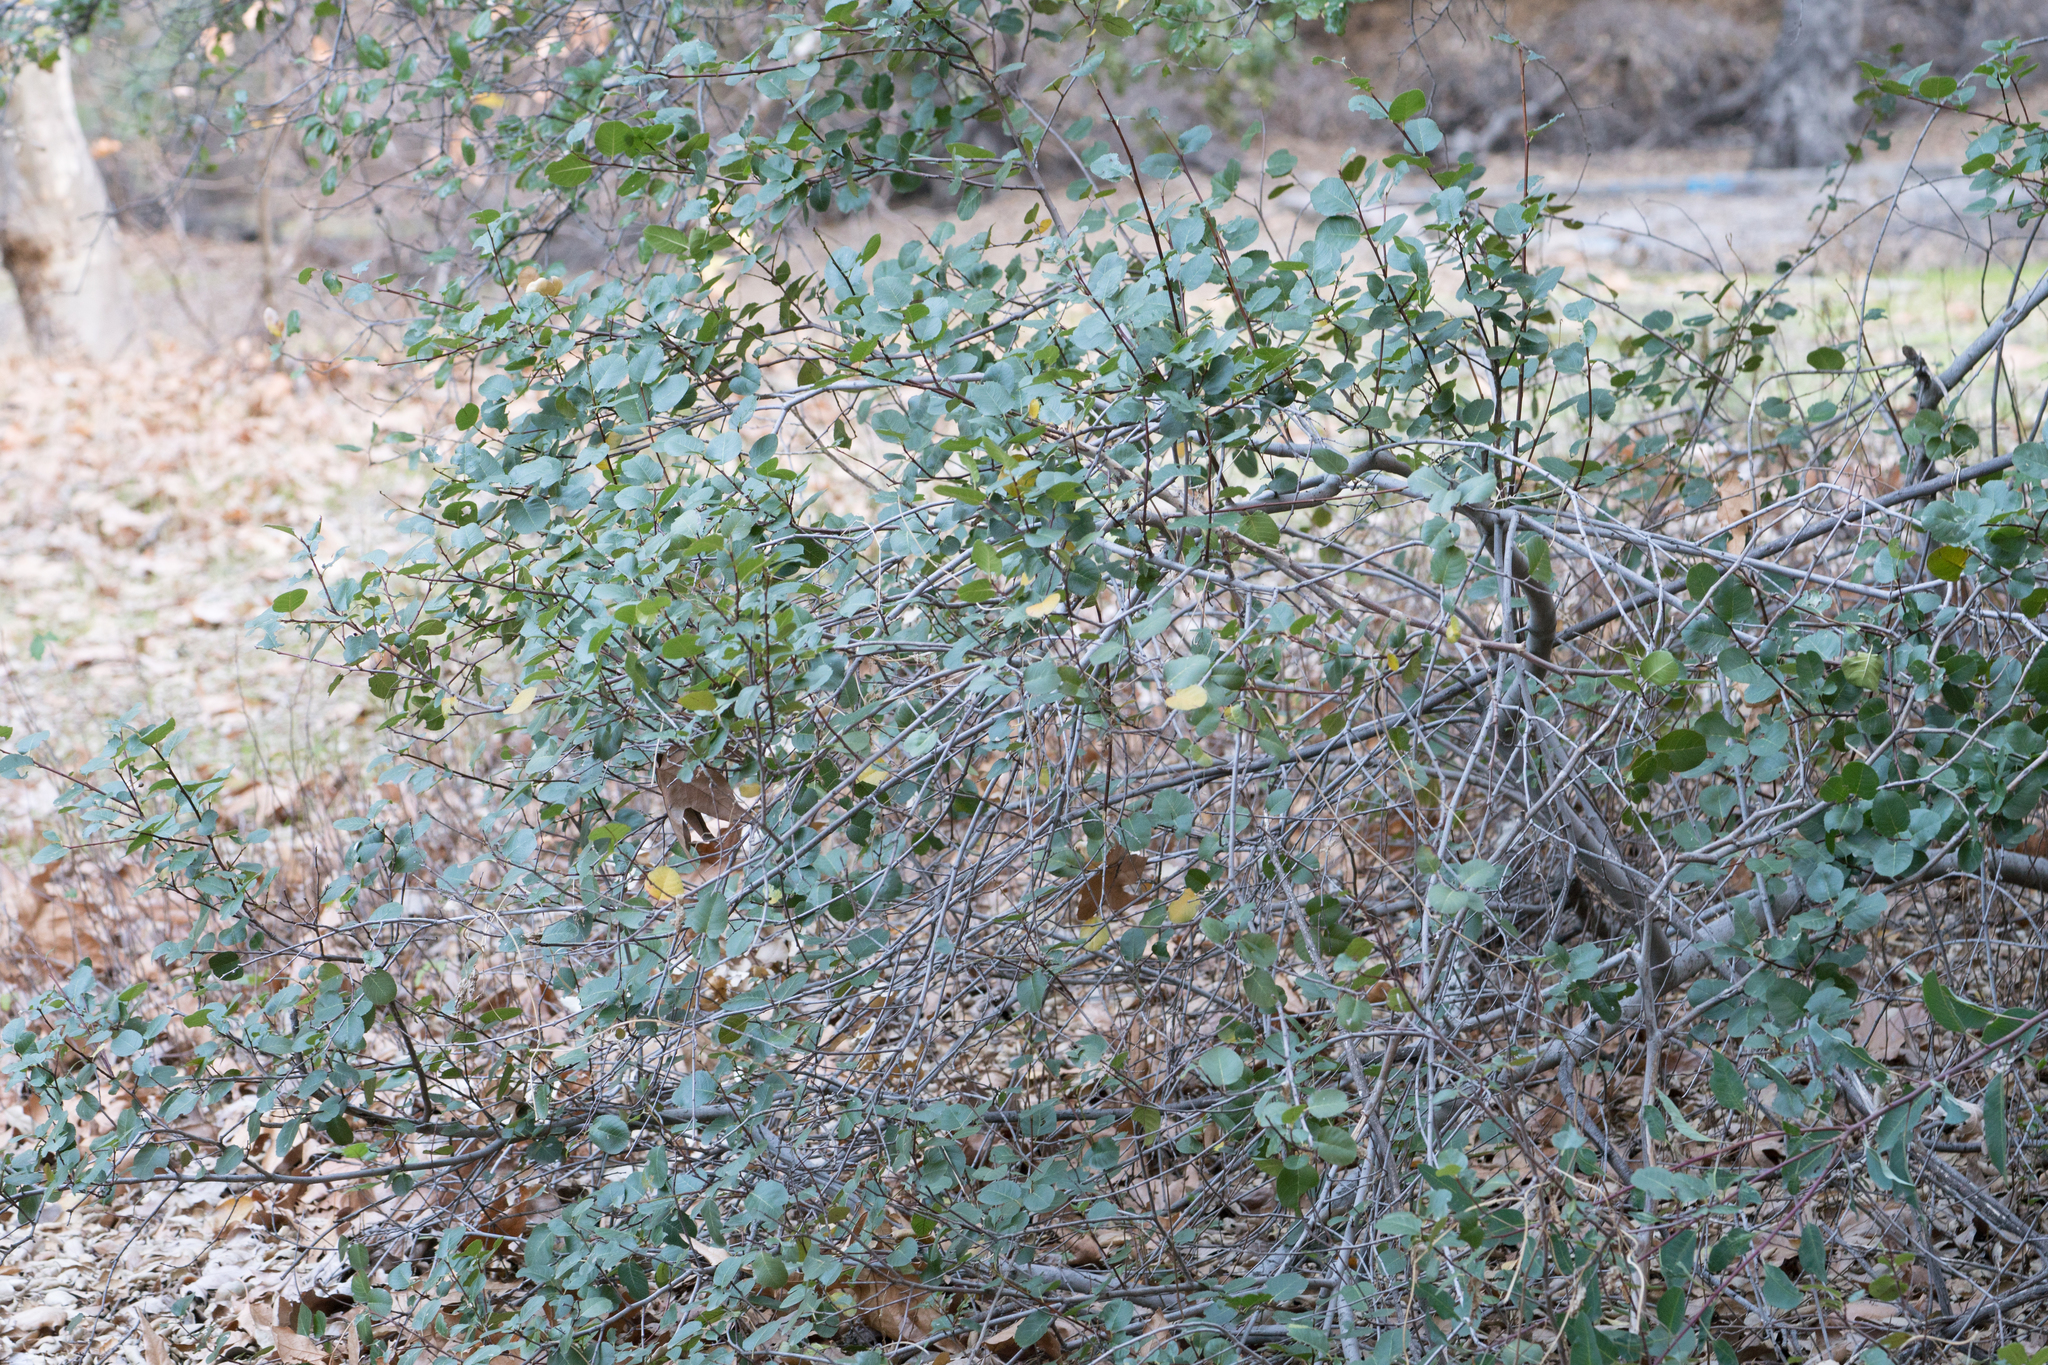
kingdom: Plantae
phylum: Tracheophyta
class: Magnoliopsida
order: Rosales
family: Rhamnaceae
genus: Endotropis
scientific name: Endotropis crocea
